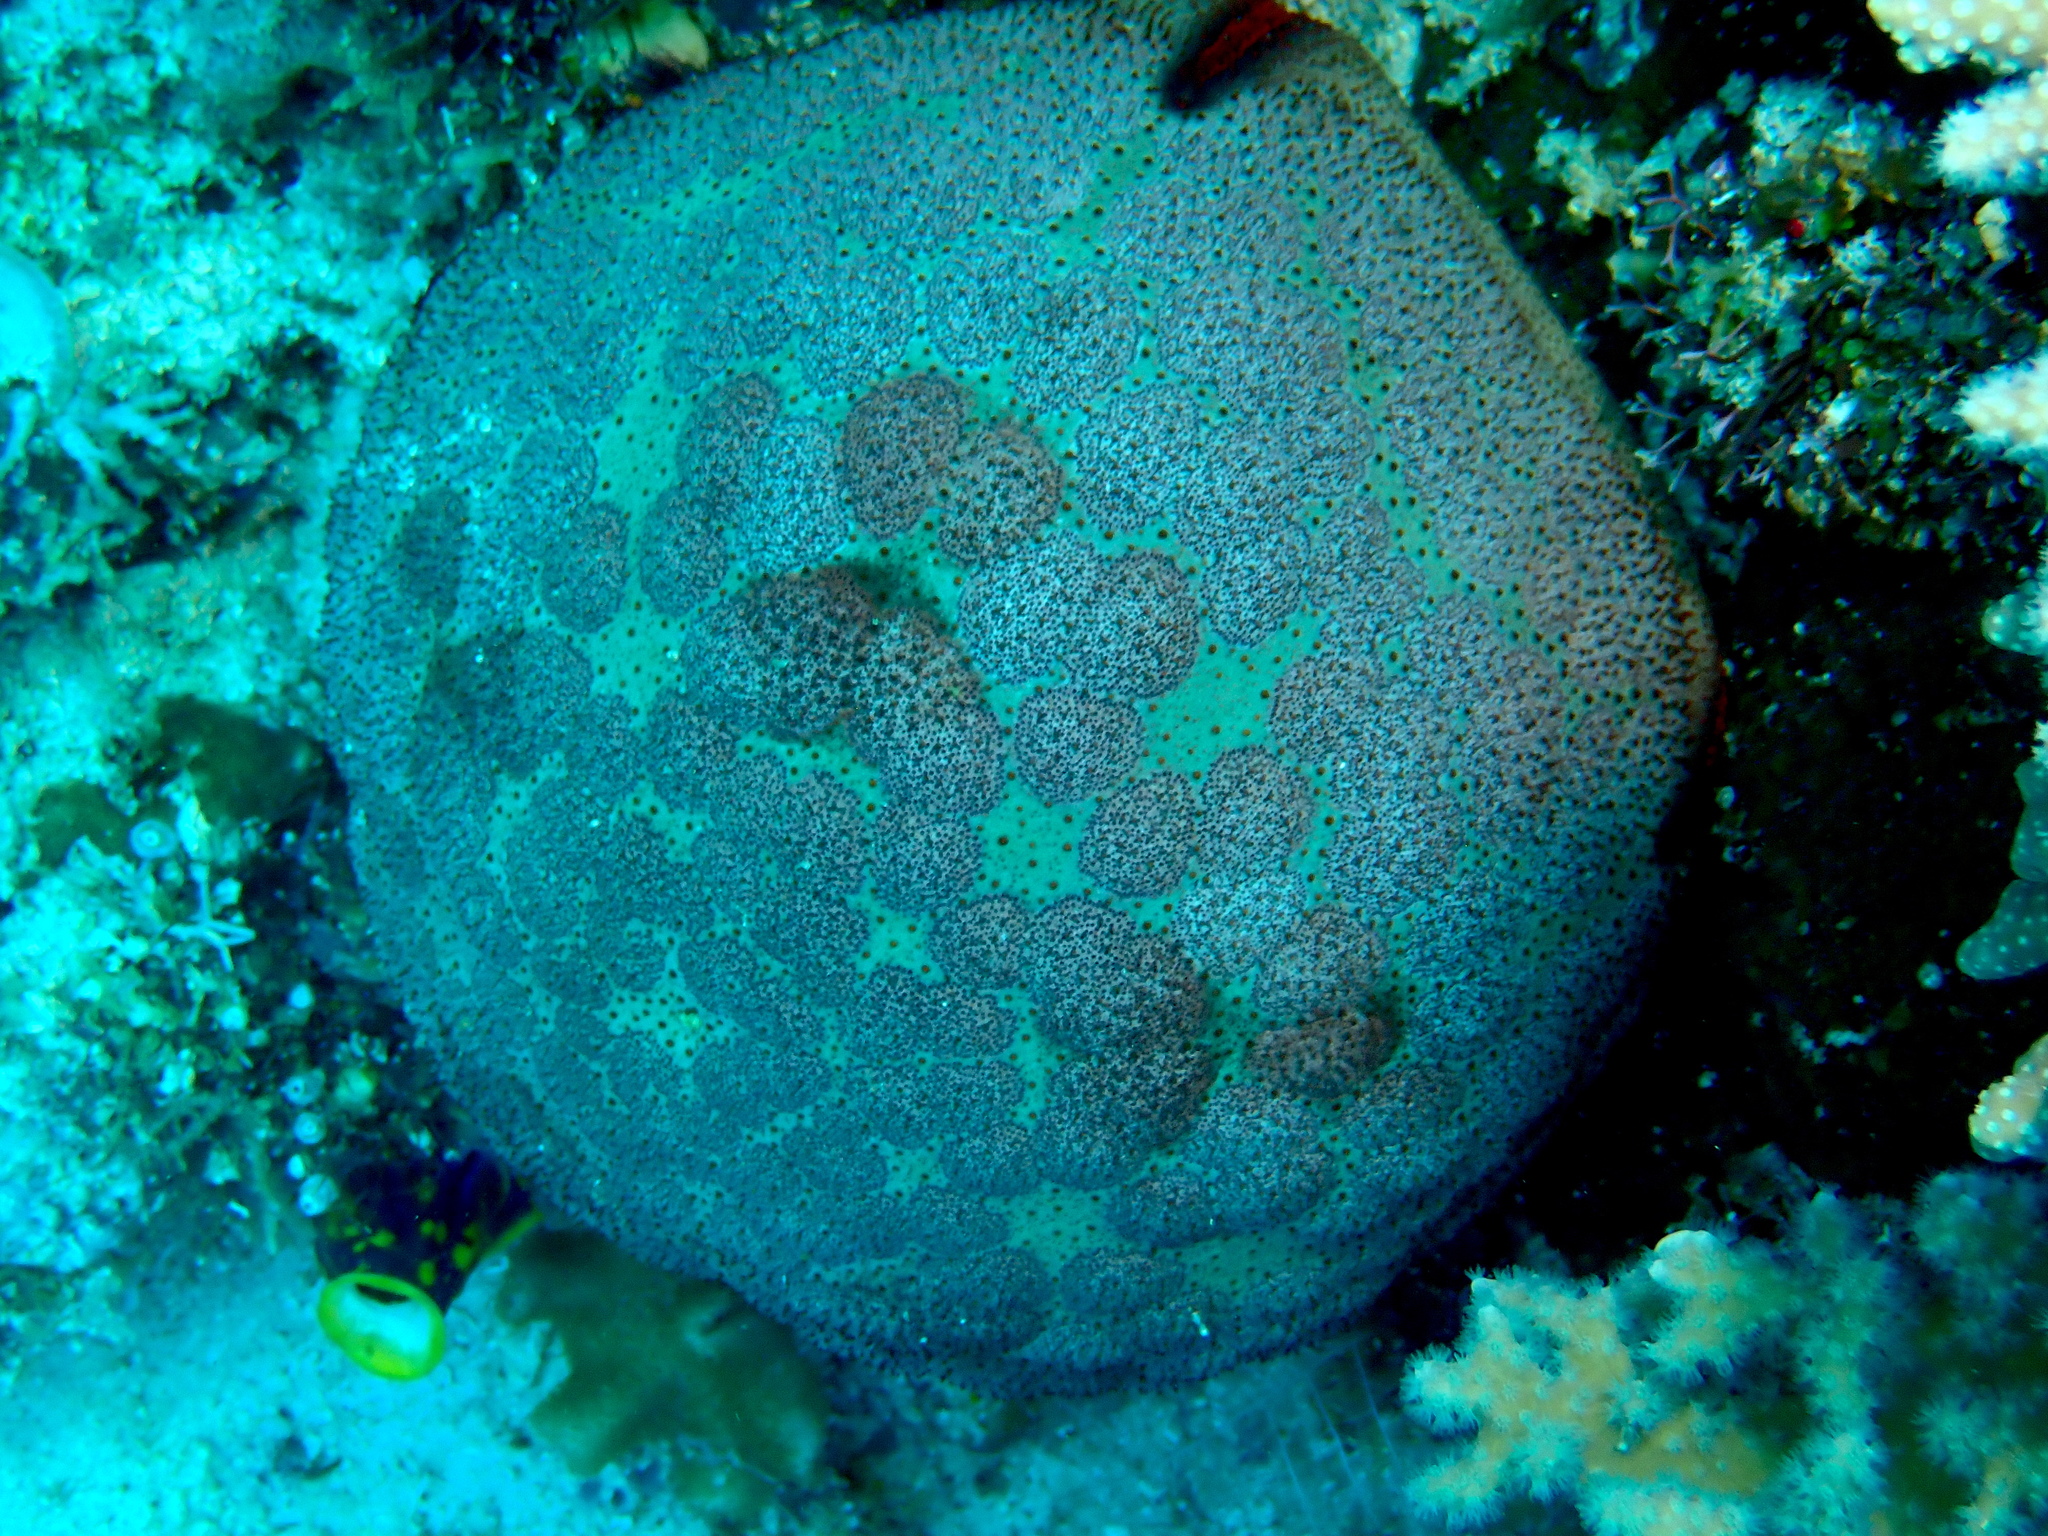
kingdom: Animalia
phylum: Echinodermata
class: Asteroidea
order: Valvatida
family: Oreasteridae
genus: Culcita
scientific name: Culcita novaeguineae
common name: Cushion star
